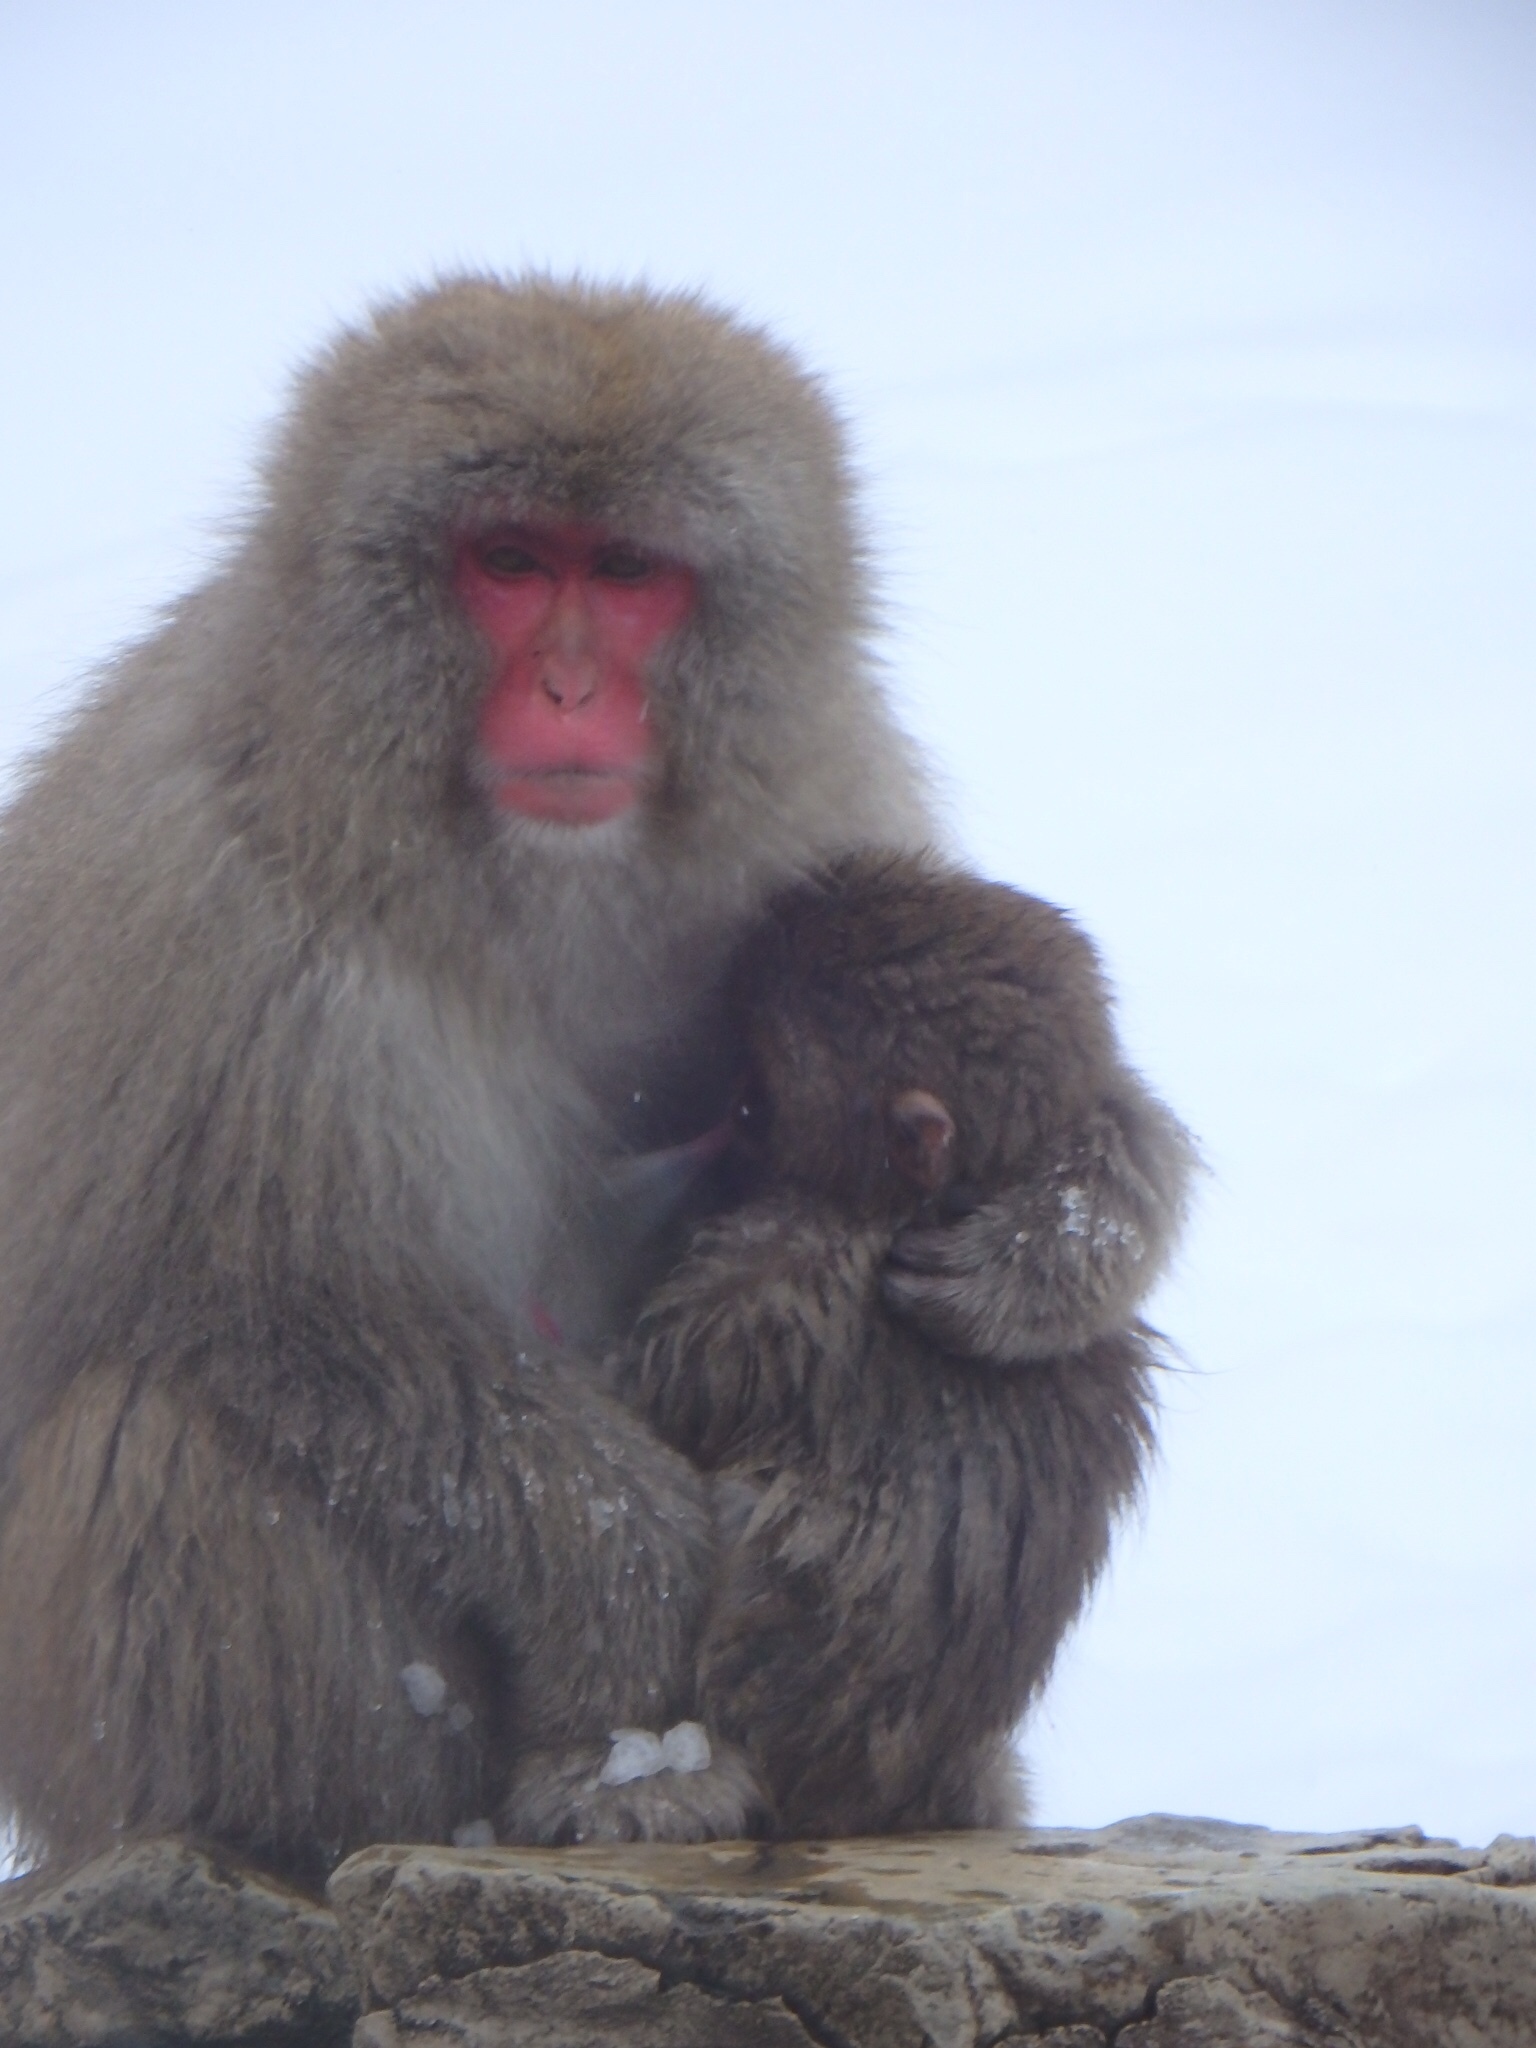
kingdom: Animalia
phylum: Chordata
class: Mammalia
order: Primates
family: Cercopithecidae
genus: Macaca
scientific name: Macaca fuscata
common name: Japanese macaque
